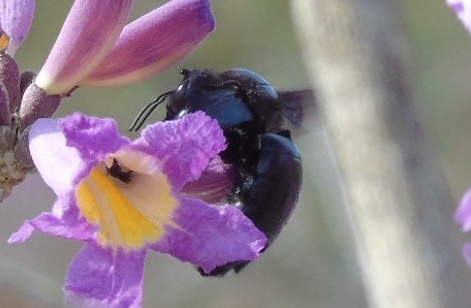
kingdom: Animalia
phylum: Arthropoda
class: Insecta
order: Hymenoptera
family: Apidae
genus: Xylocopa
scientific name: Xylocopa fimbriata
